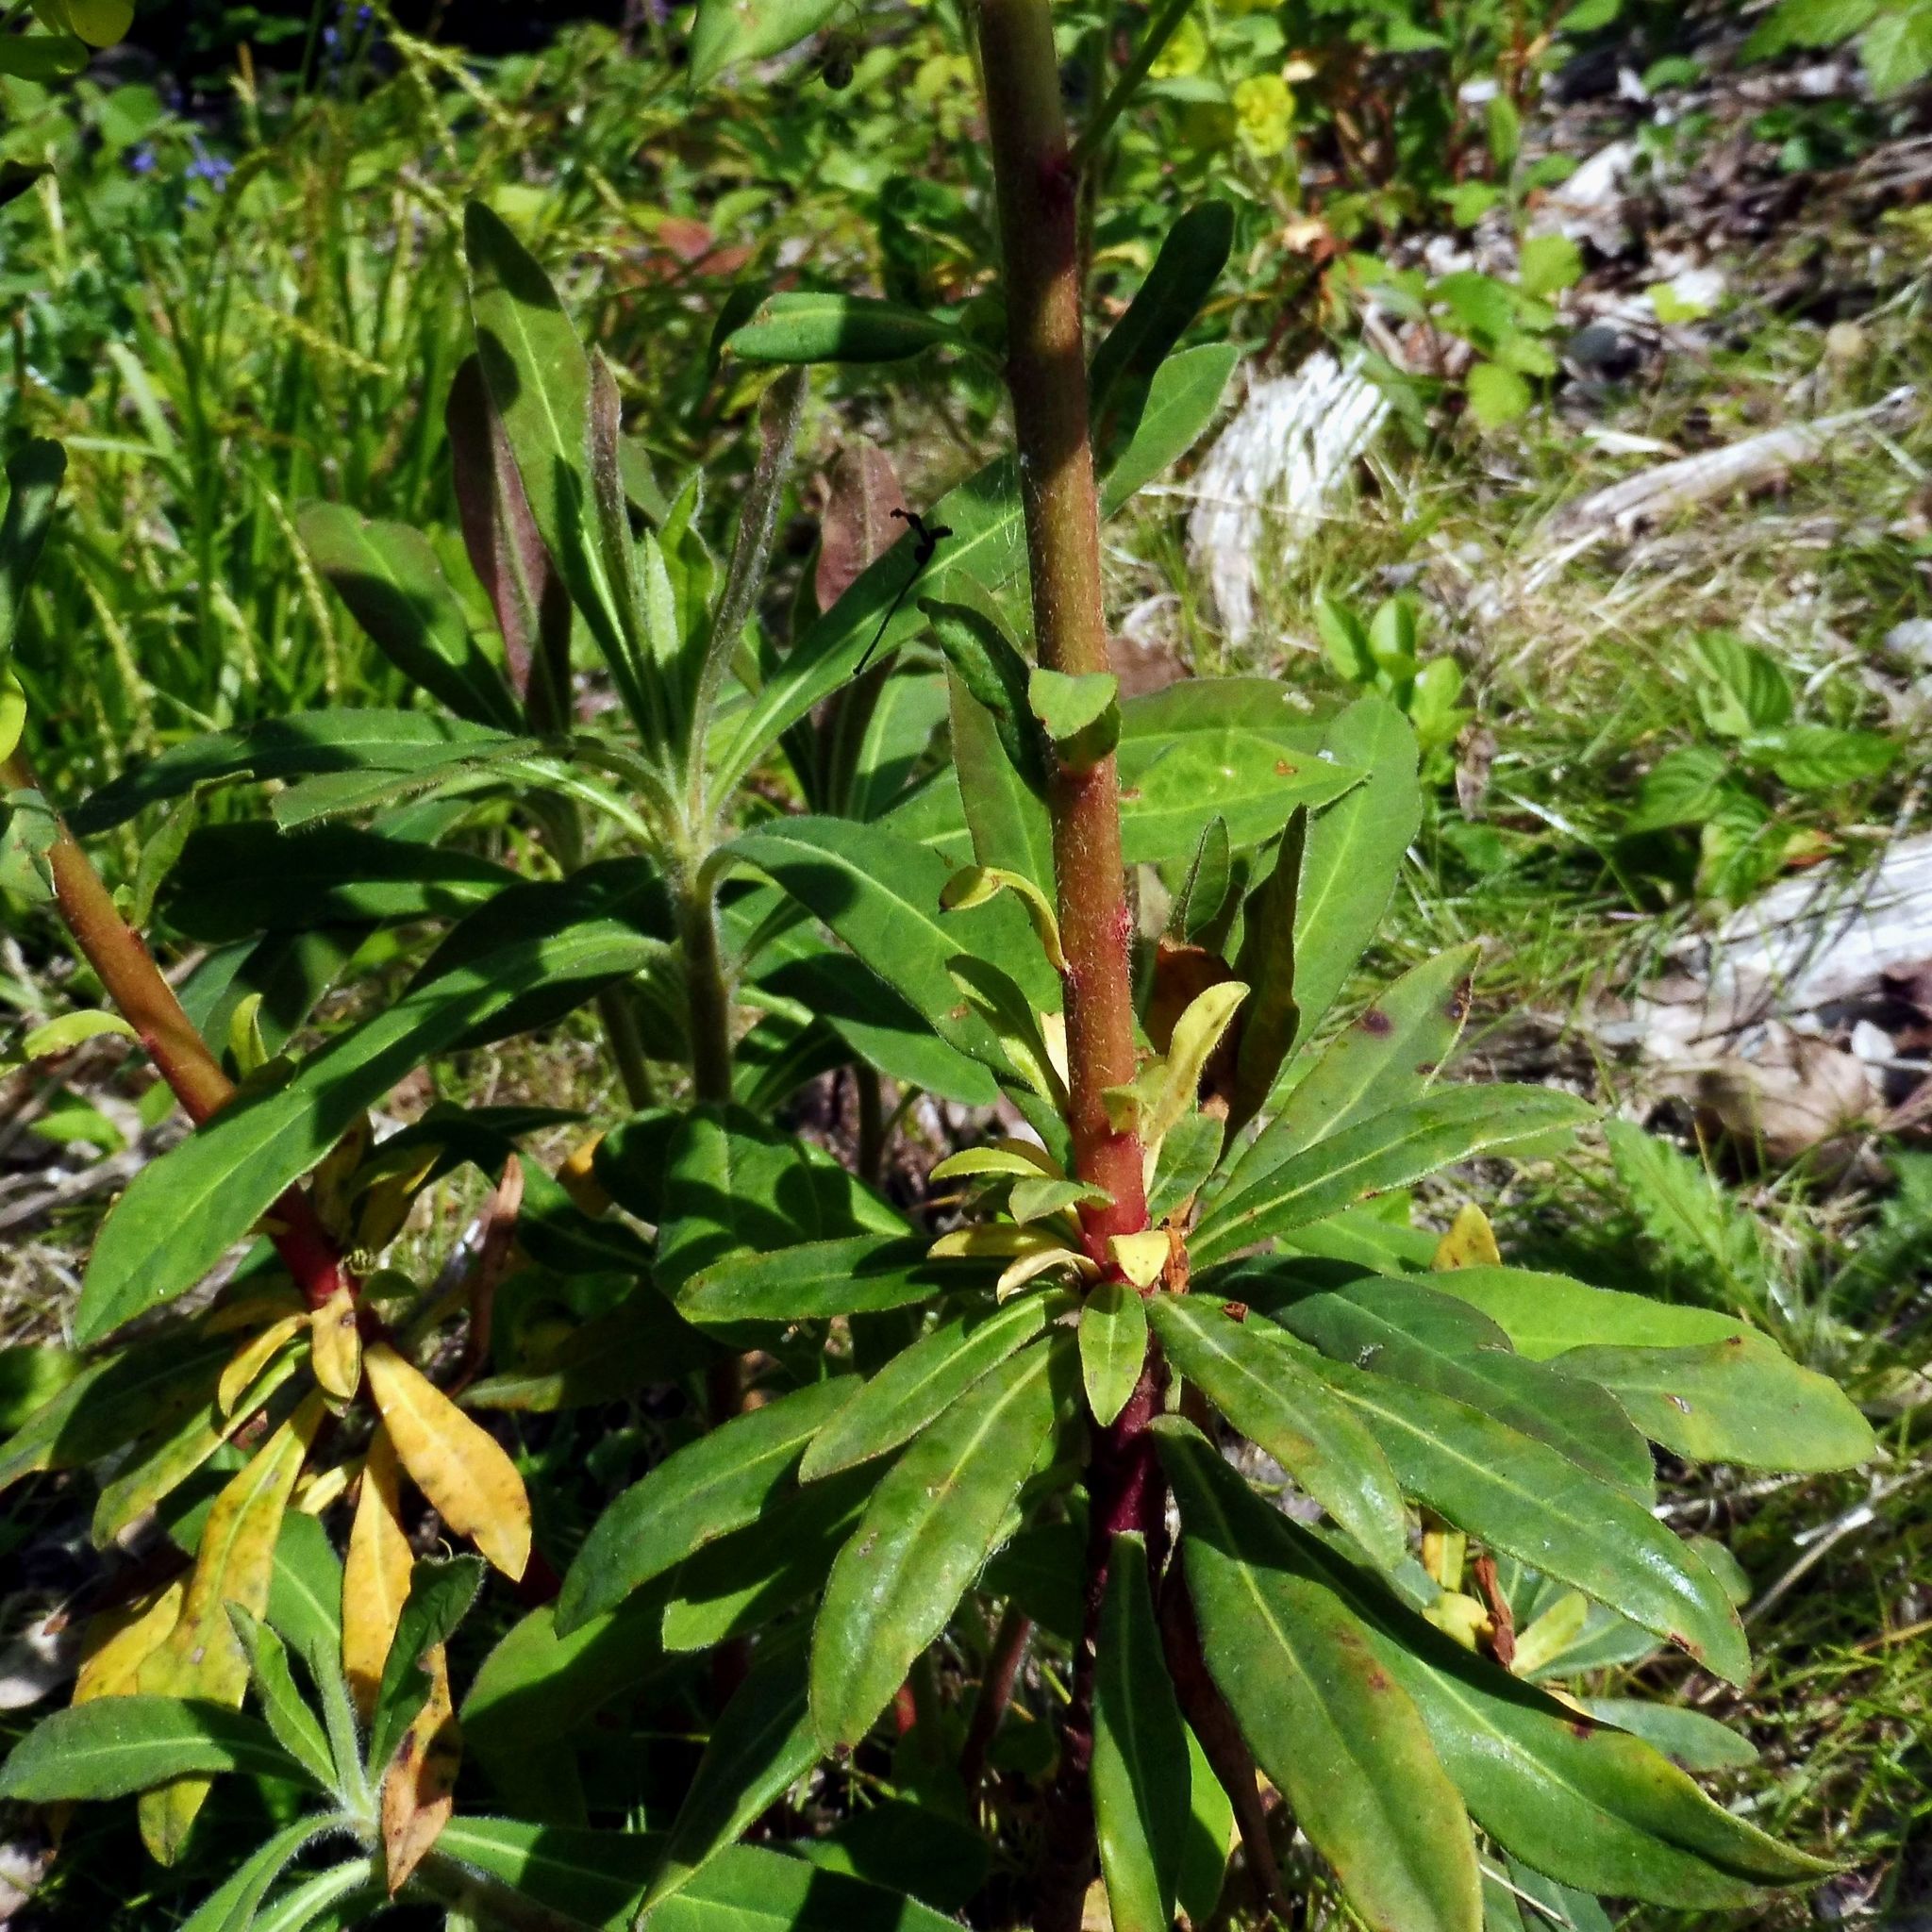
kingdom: Plantae
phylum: Tracheophyta
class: Magnoliopsida
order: Malpighiales
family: Euphorbiaceae
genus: Euphorbia
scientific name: Euphorbia amygdaloides
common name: Wood spurge
